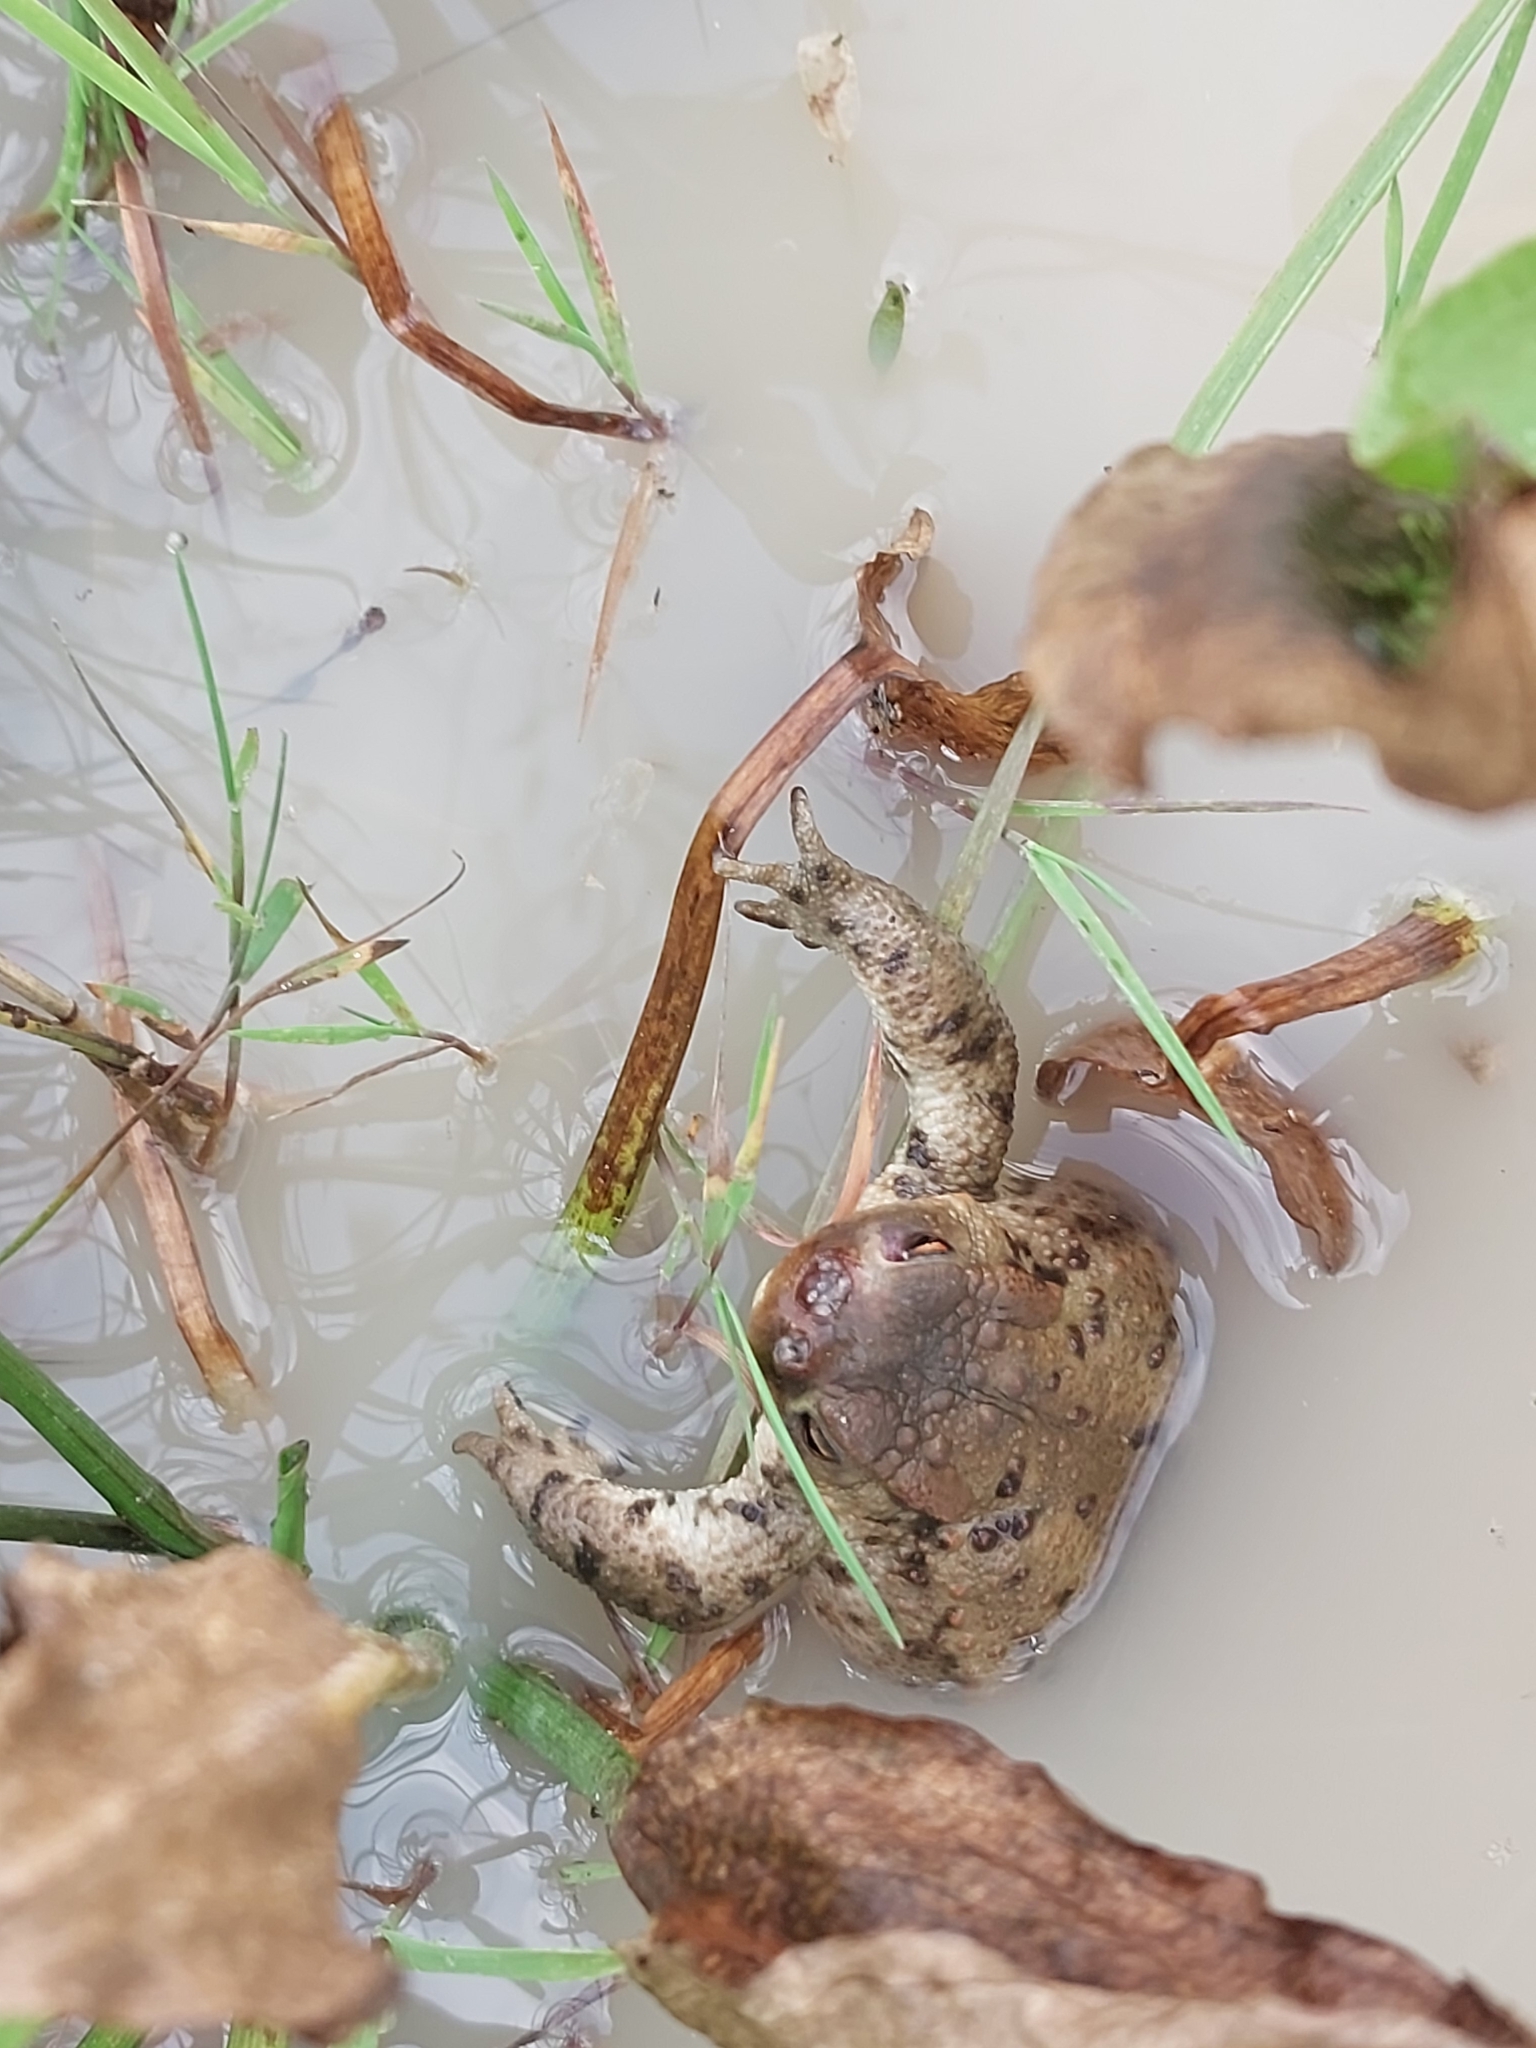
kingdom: Animalia
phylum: Arthropoda
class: Insecta
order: Diptera
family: Calliphoridae
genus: Lucilia
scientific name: Lucilia bufonivora
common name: Anuran parasite
